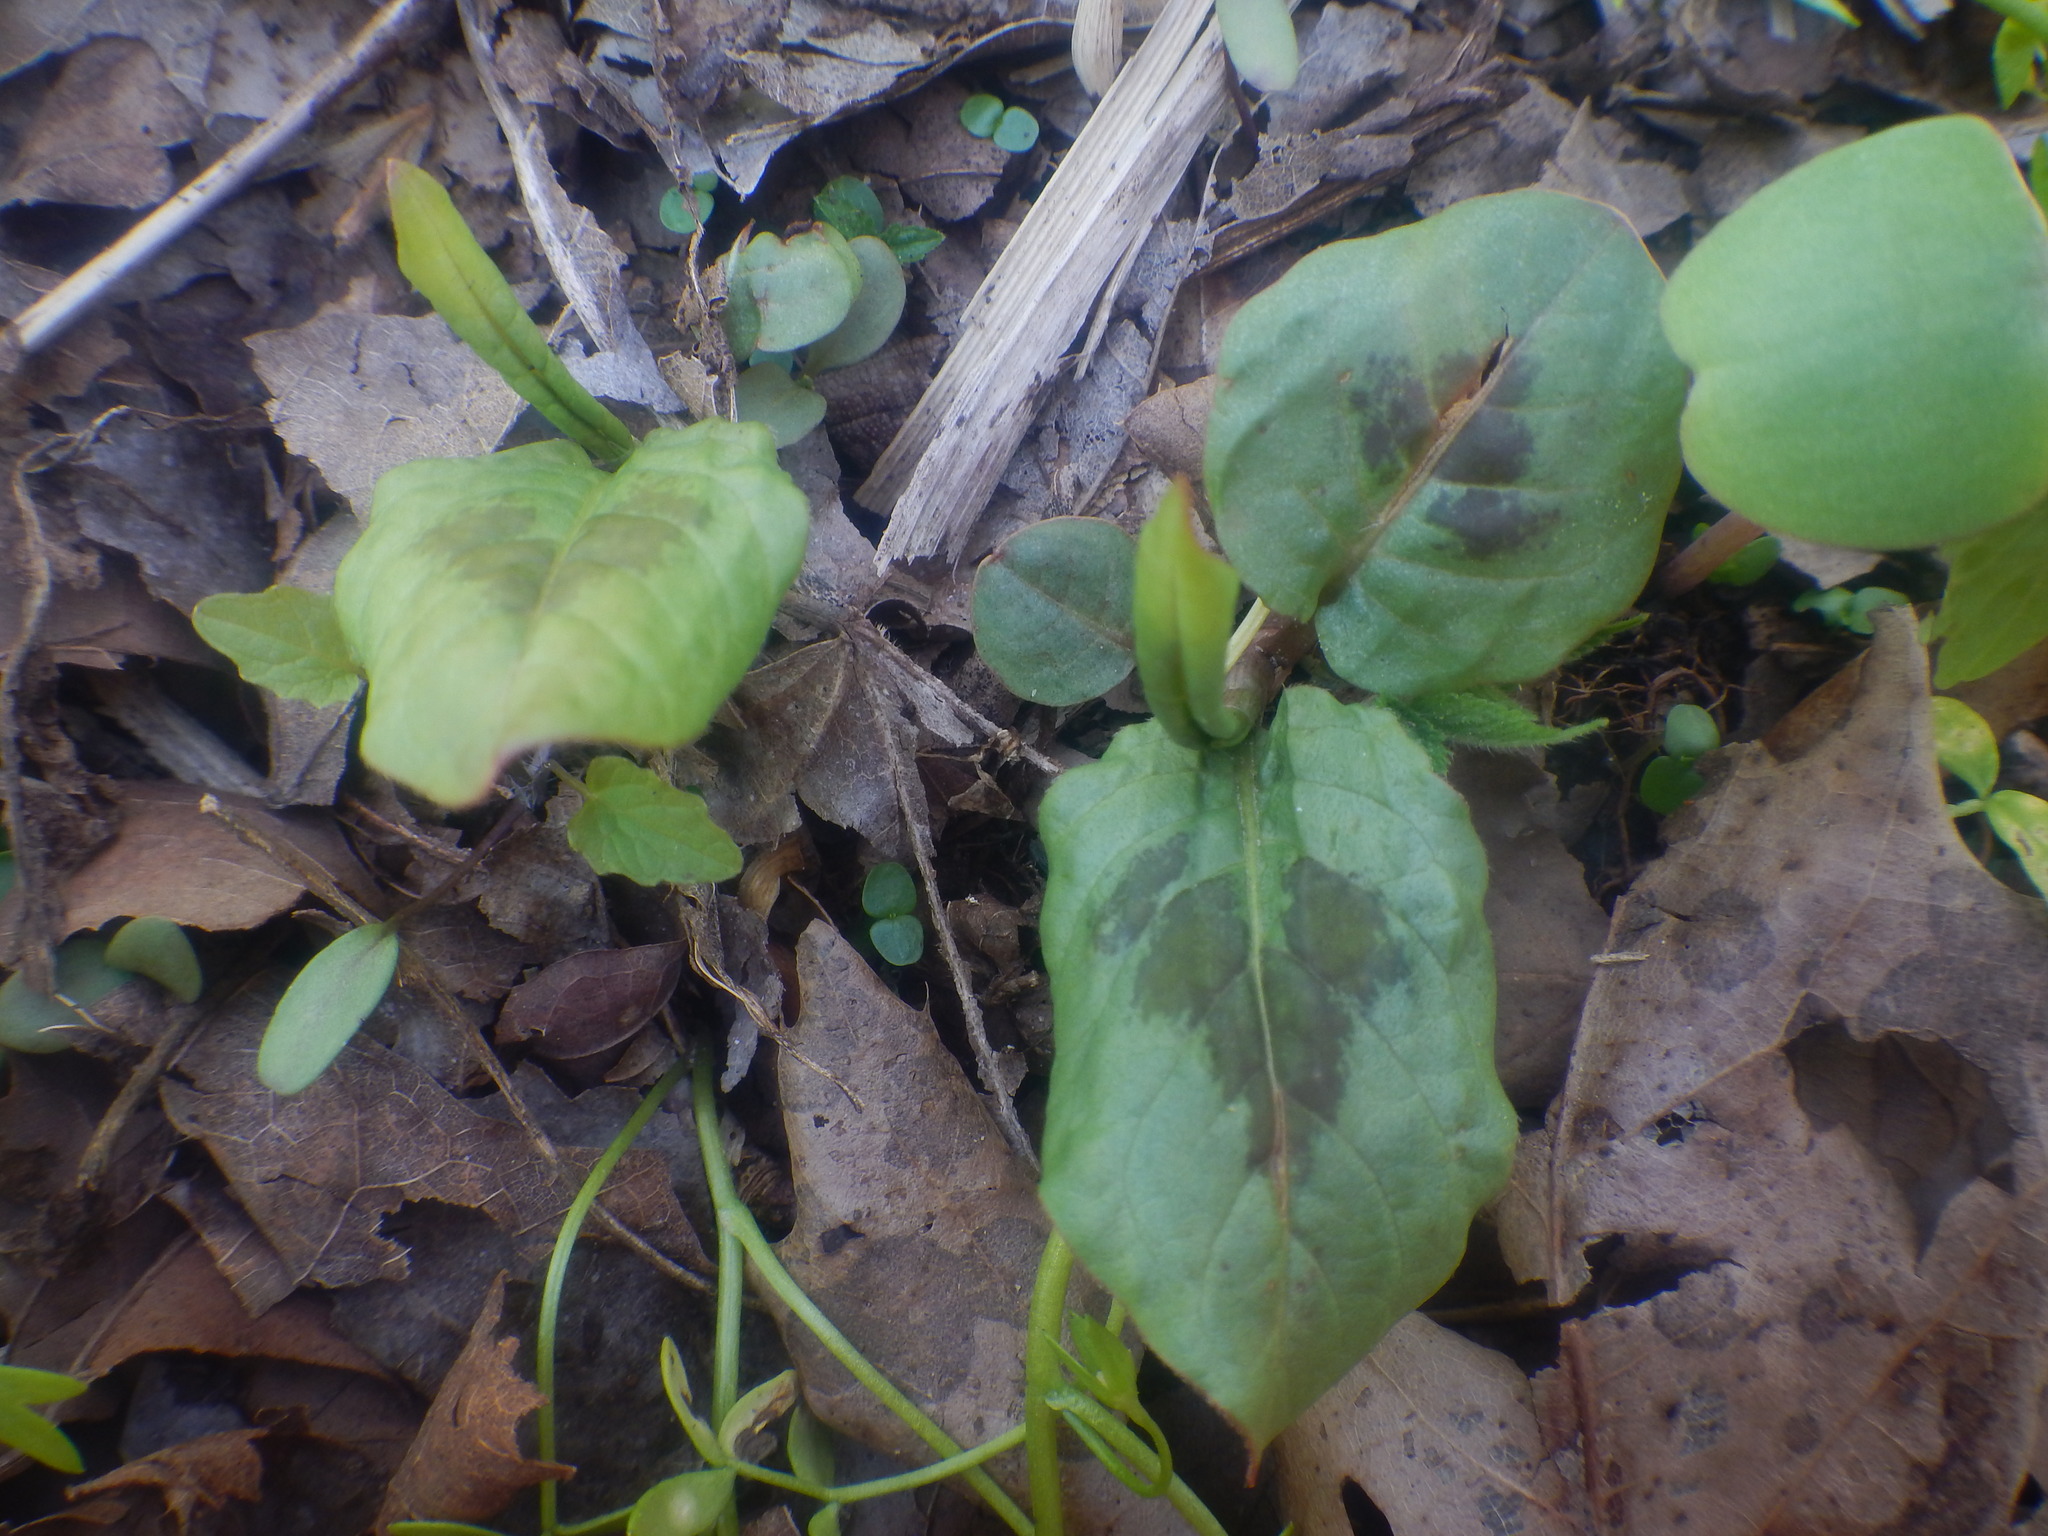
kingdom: Plantae
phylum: Tracheophyta
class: Magnoliopsida
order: Caryophyllales
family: Polygonaceae
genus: Persicaria
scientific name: Persicaria virginiana
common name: Jumpseed
